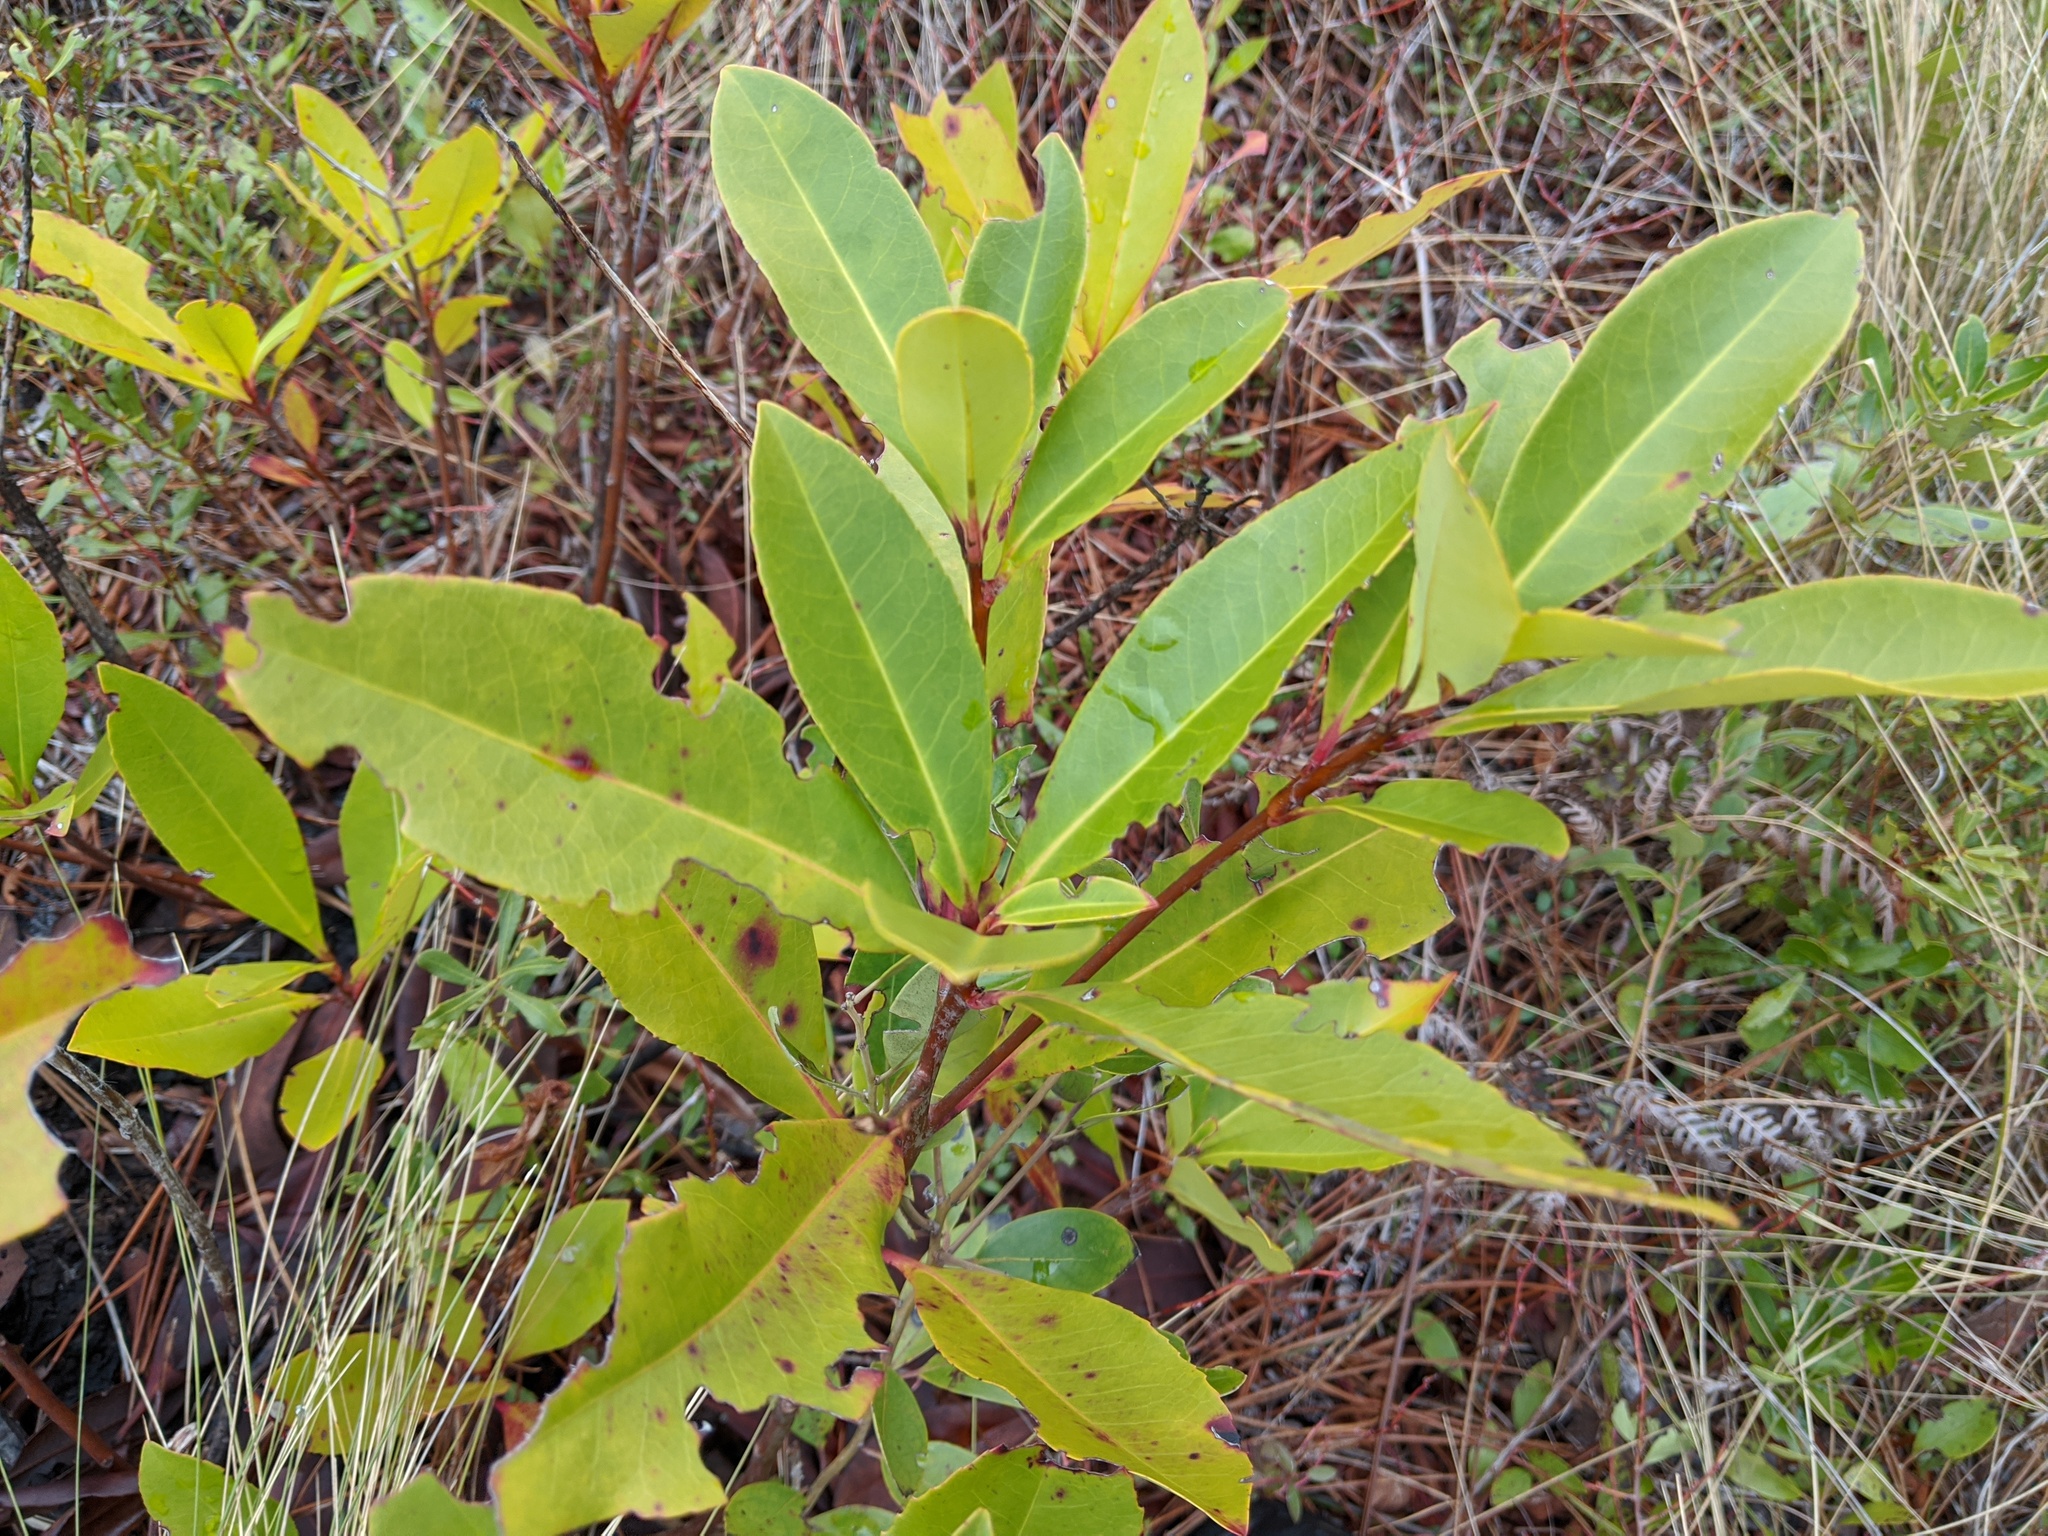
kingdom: Plantae
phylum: Tracheophyta
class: Magnoliopsida
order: Ericales
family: Theaceae
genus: Gordonia
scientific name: Gordonia lasianthus
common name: Loblolly bay
